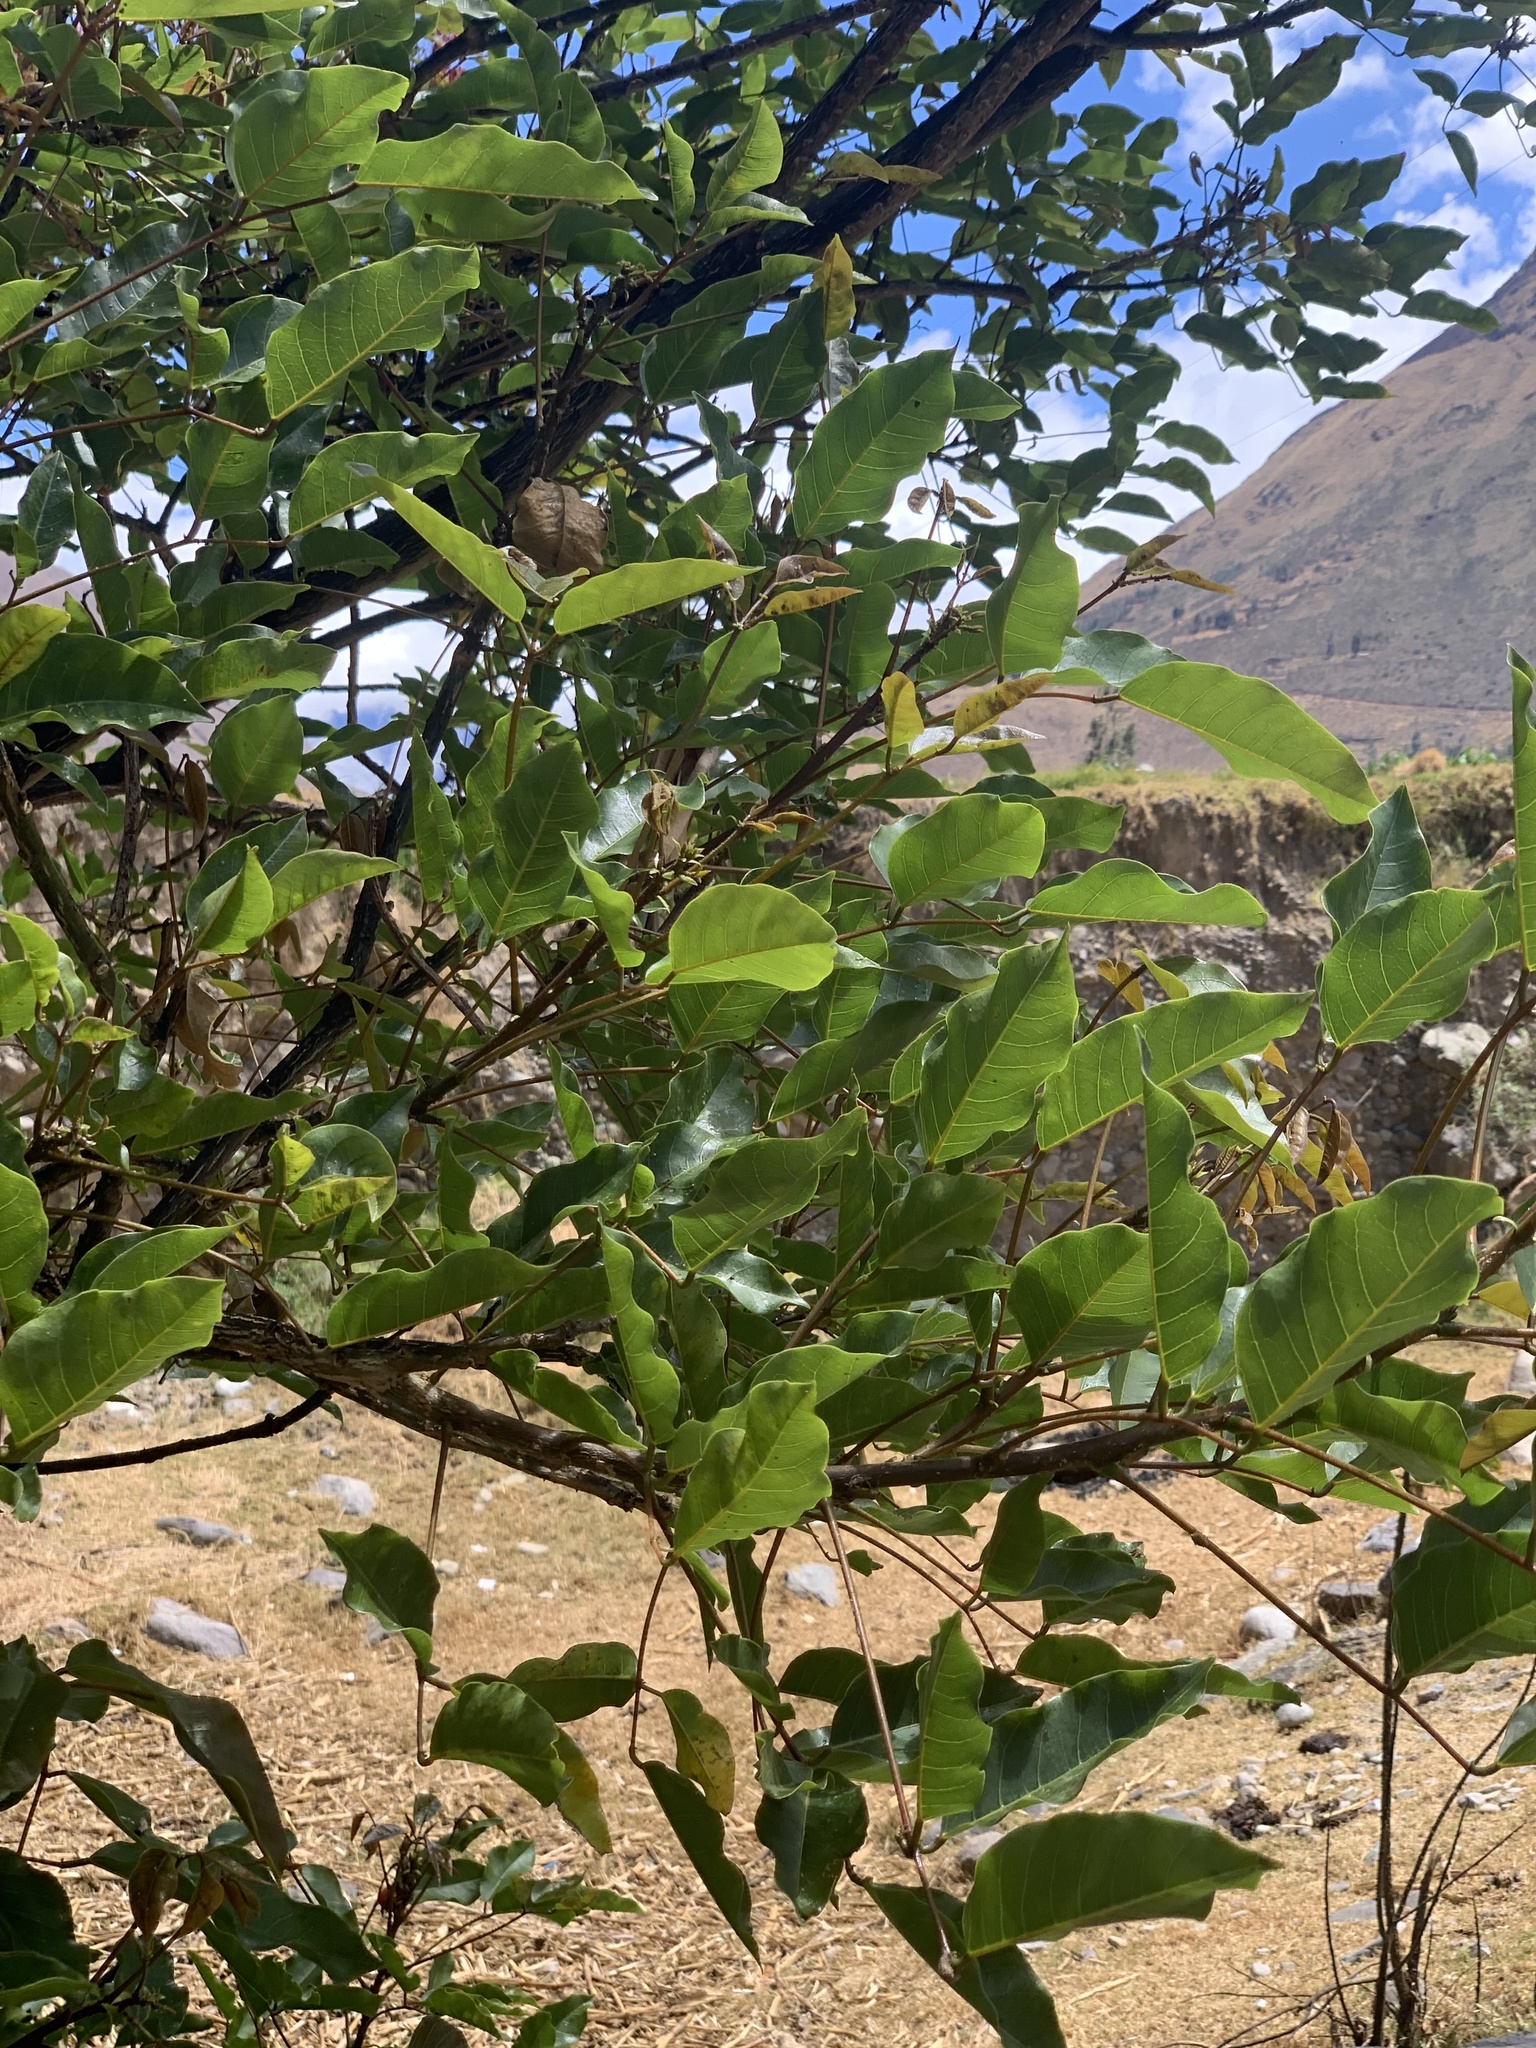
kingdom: Plantae
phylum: Tracheophyta
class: Magnoliopsida
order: Fabales
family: Fabaceae
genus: Erythrina
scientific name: Erythrina falcata
